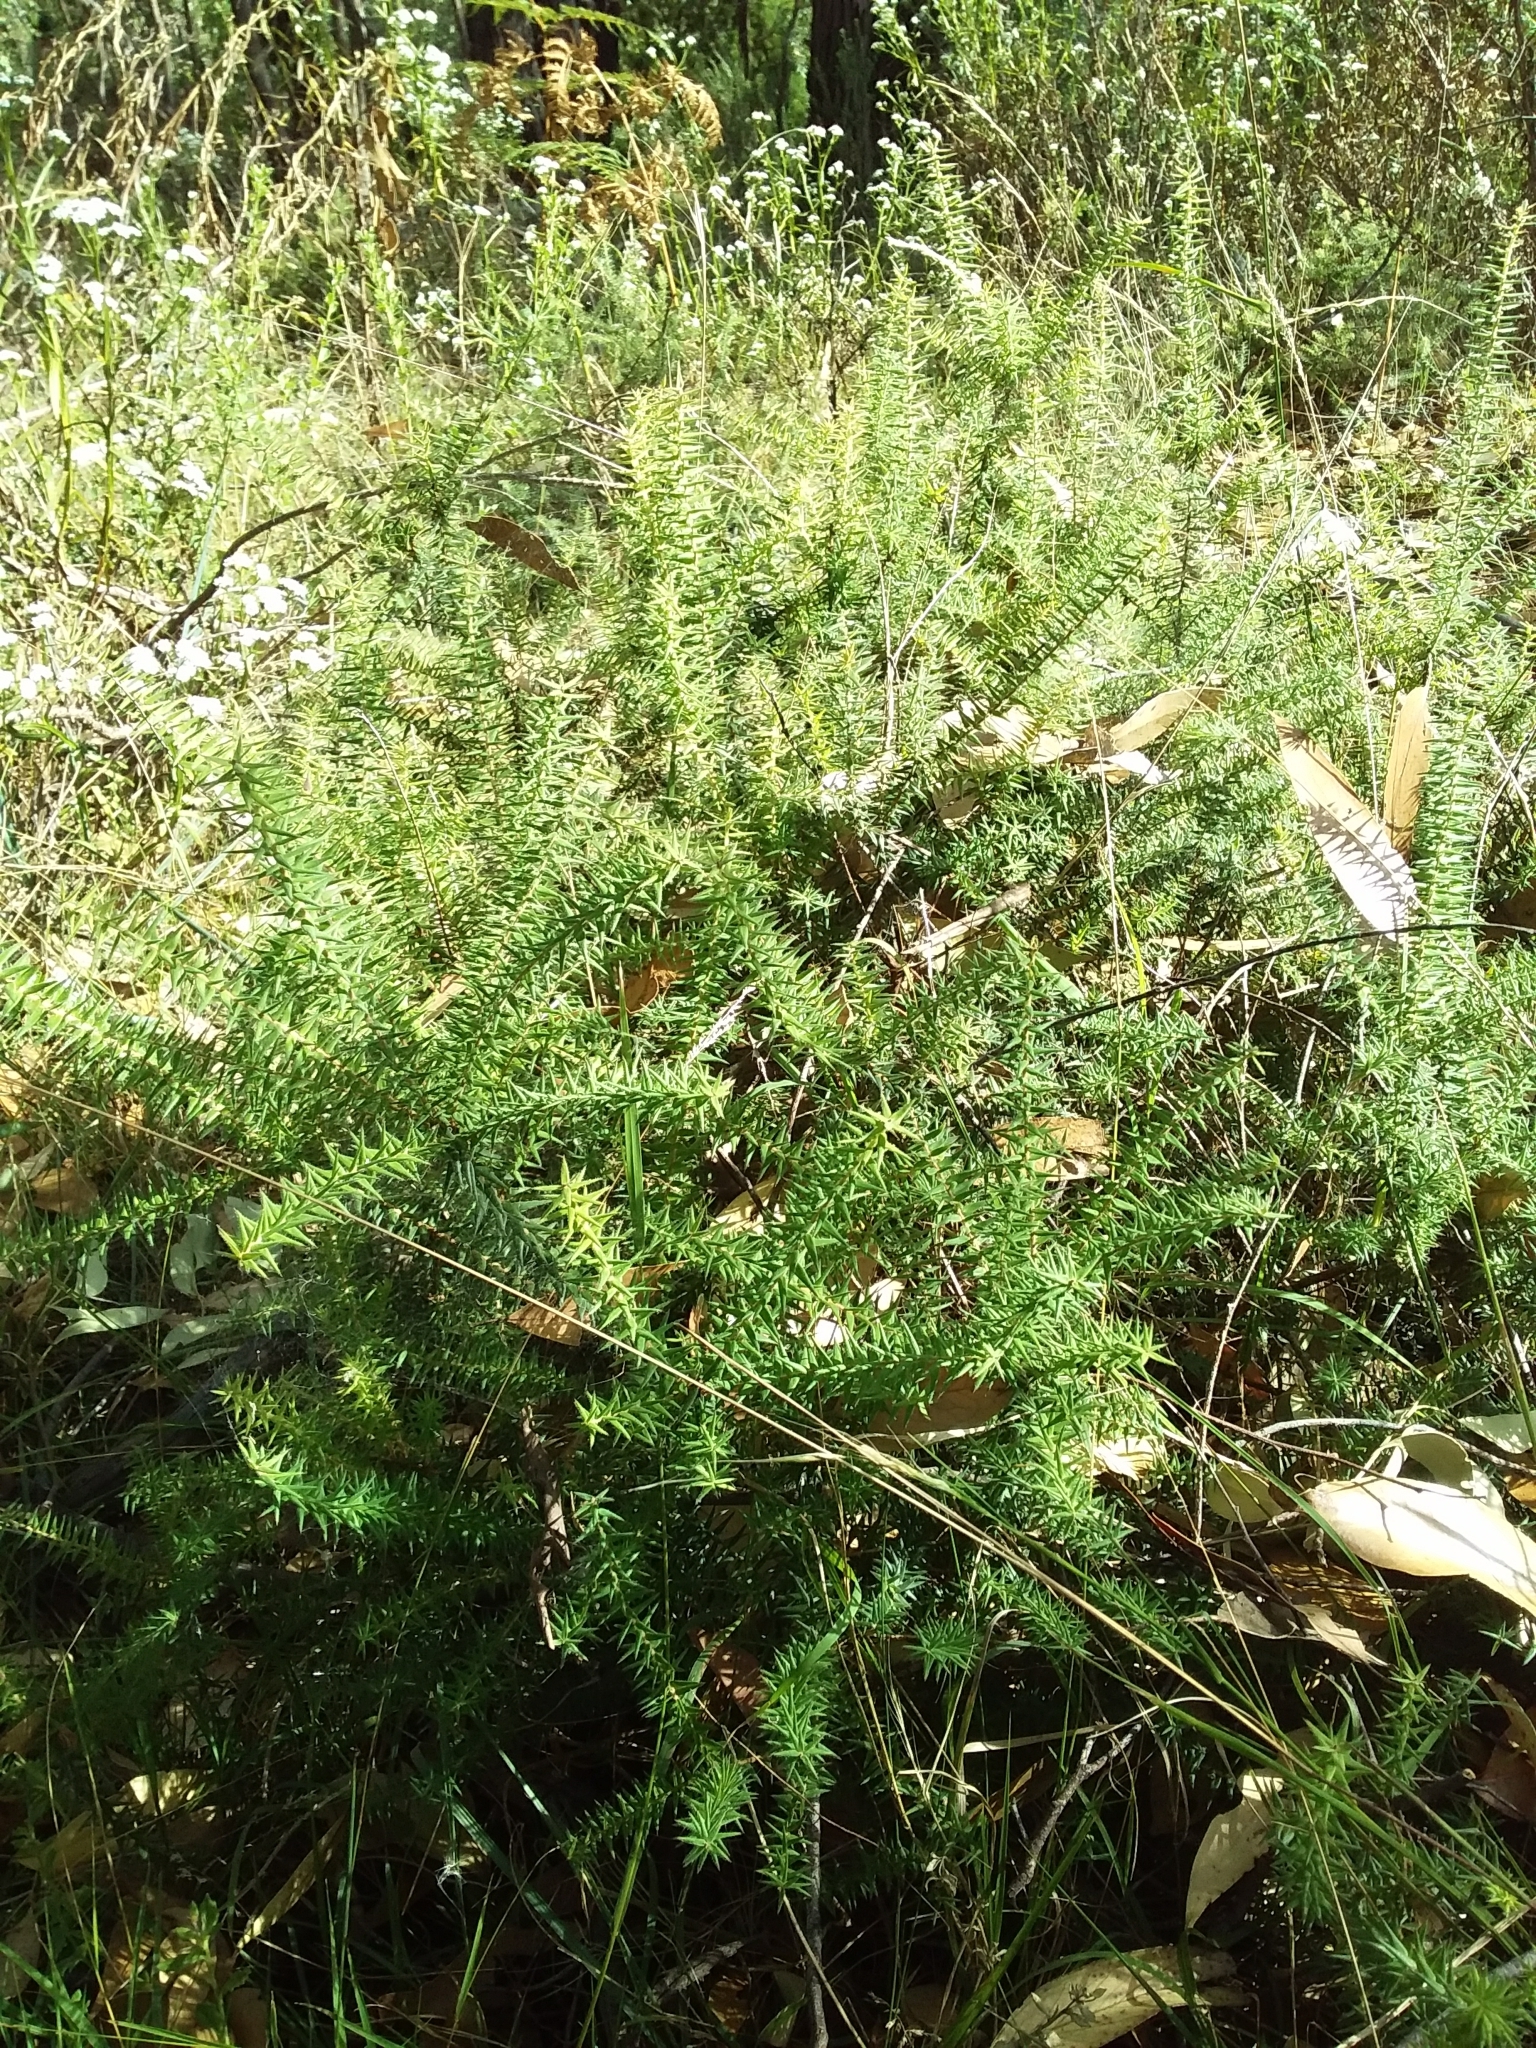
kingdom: Plantae
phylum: Tracheophyta
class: Magnoliopsida
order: Ericales
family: Ericaceae
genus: Acrotriche
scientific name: Acrotriche fasciculiflora
